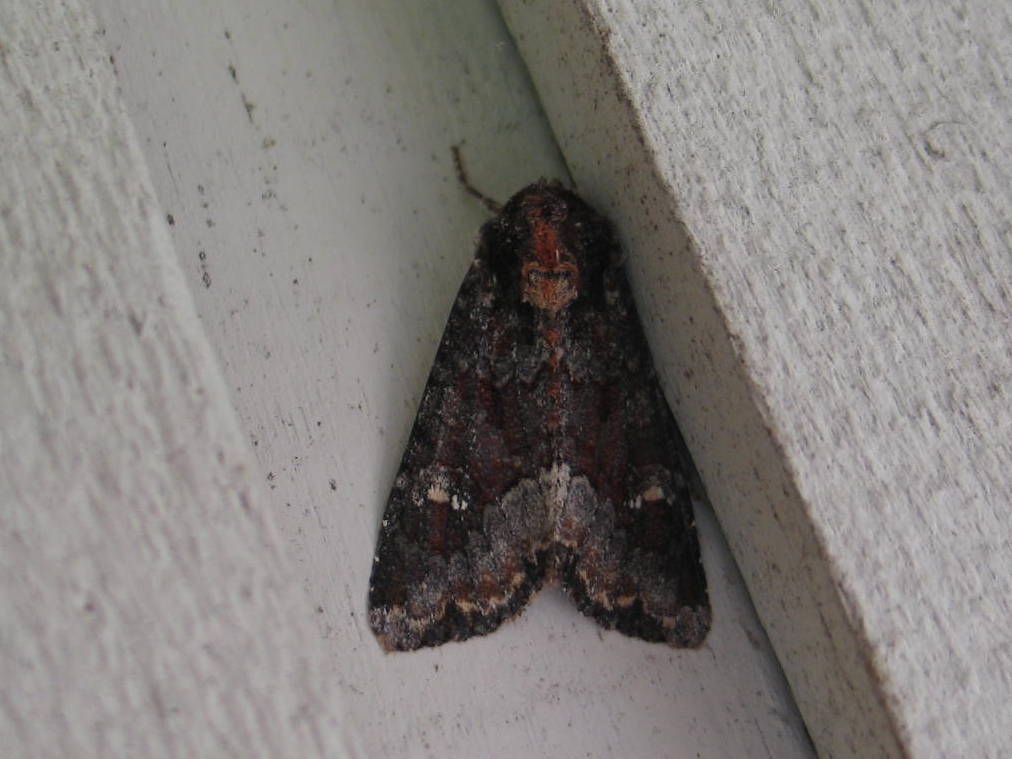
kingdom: Animalia
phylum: Arthropoda
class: Insecta
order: Lepidoptera
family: Noctuidae
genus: Apamea
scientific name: Apamea amputatrix
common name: Yellow-headed cutworm moth
